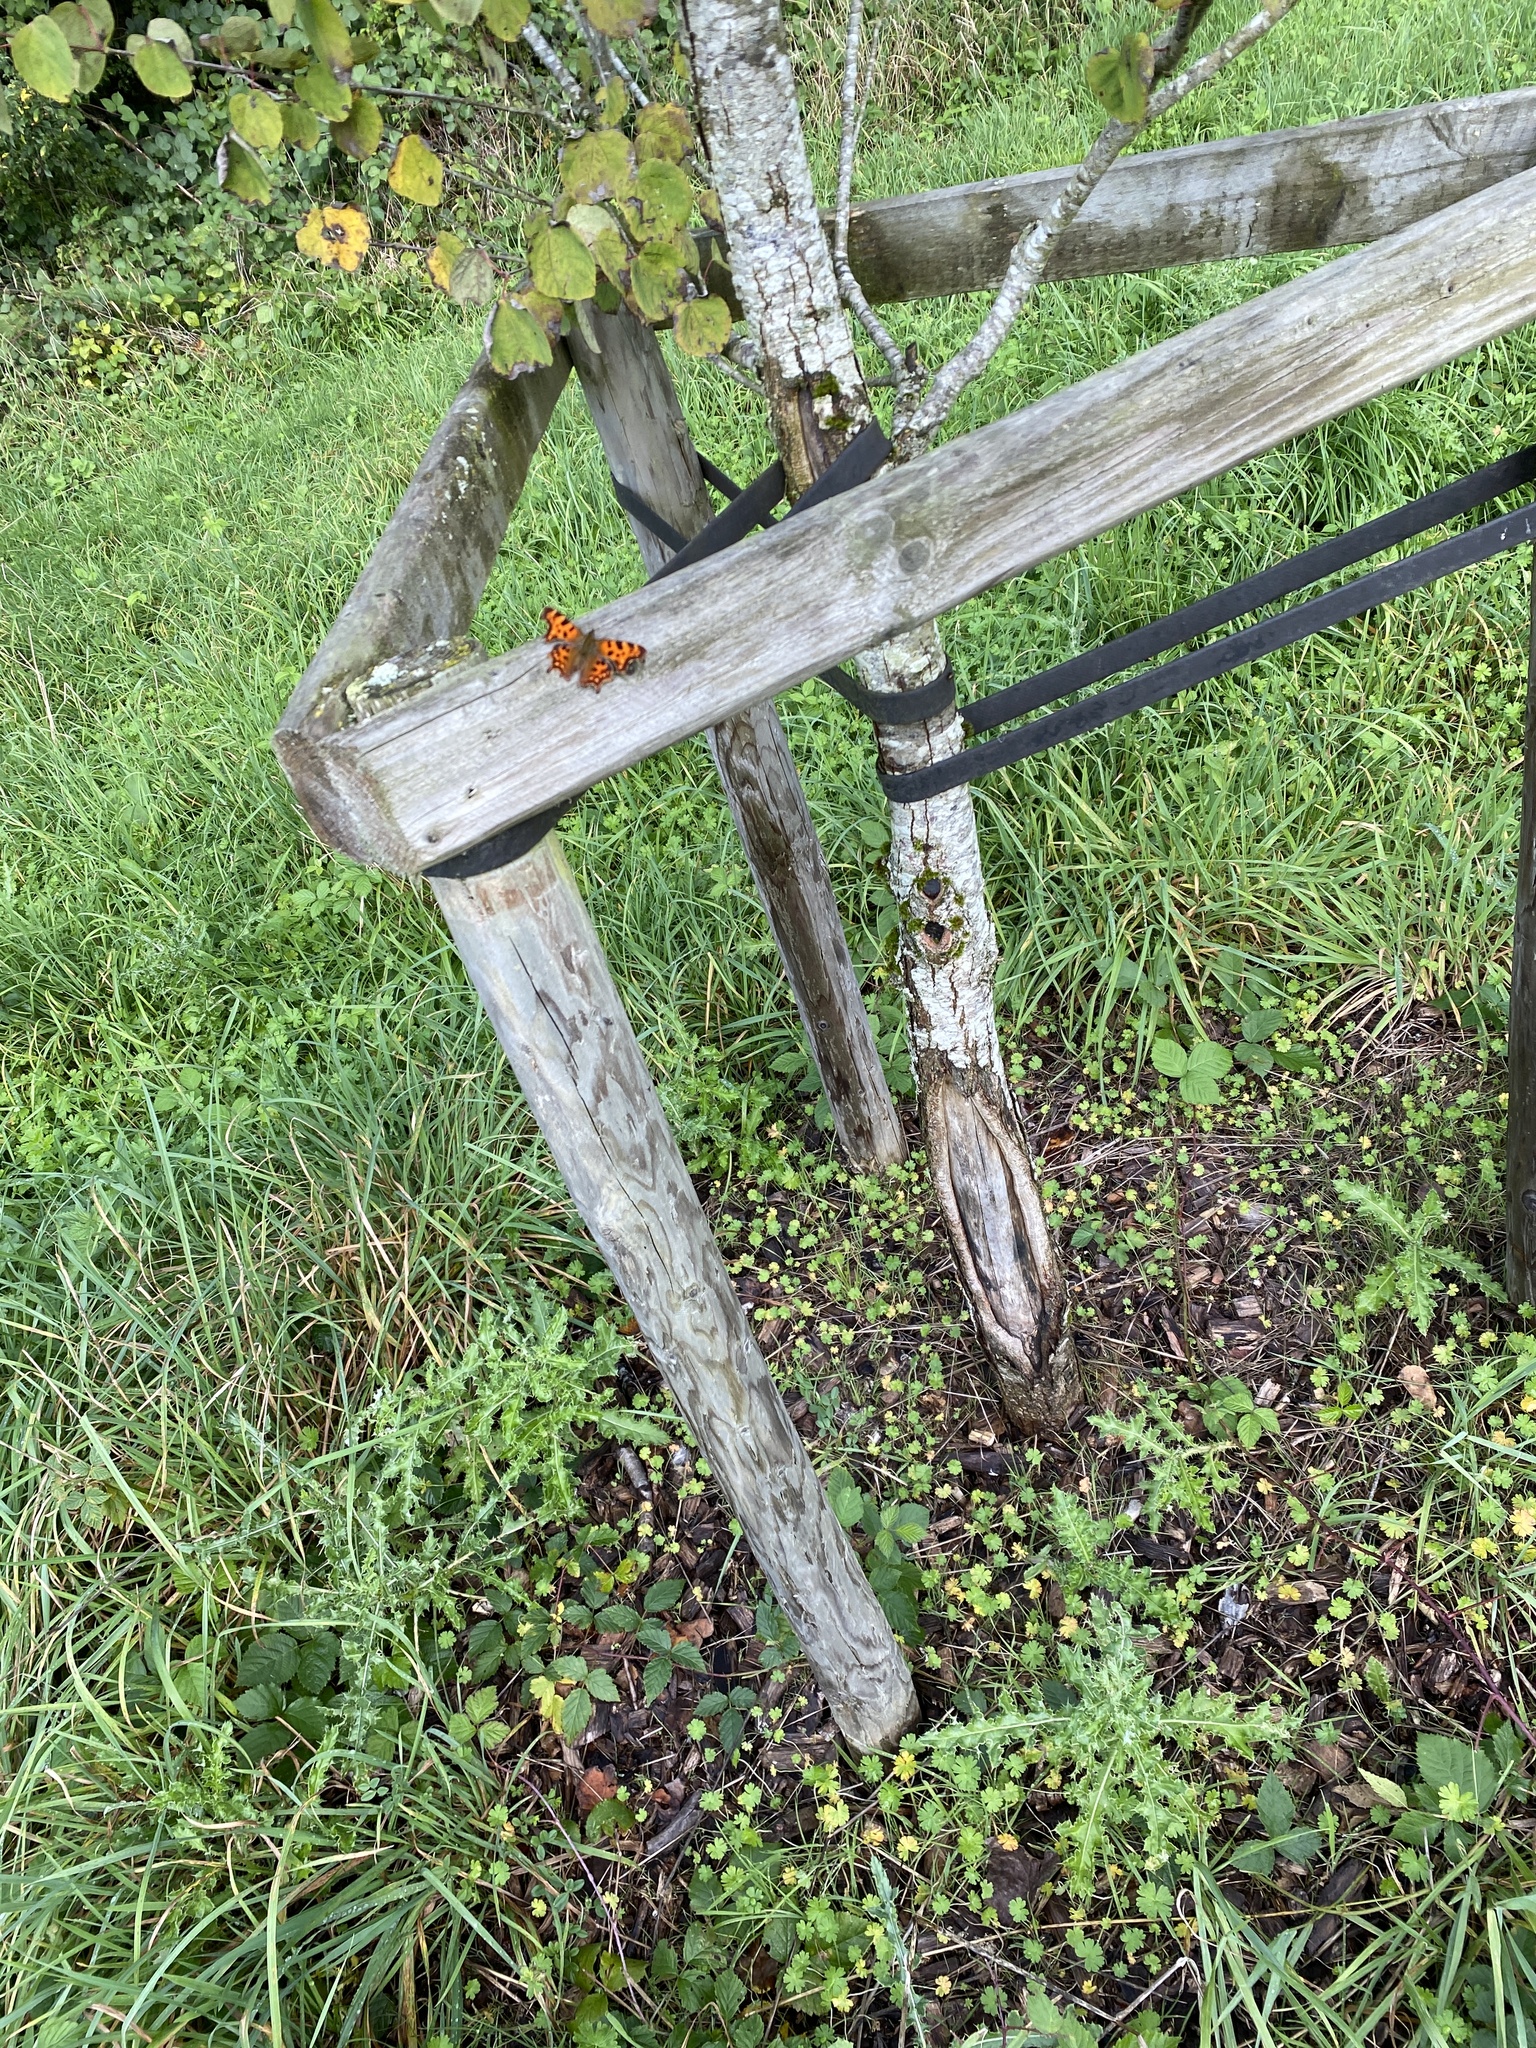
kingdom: Animalia
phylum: Arthropoda
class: Insecta
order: Lepidoptera
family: Nymphalidae
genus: Polygonia
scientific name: Polygonia c-album
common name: Comma
